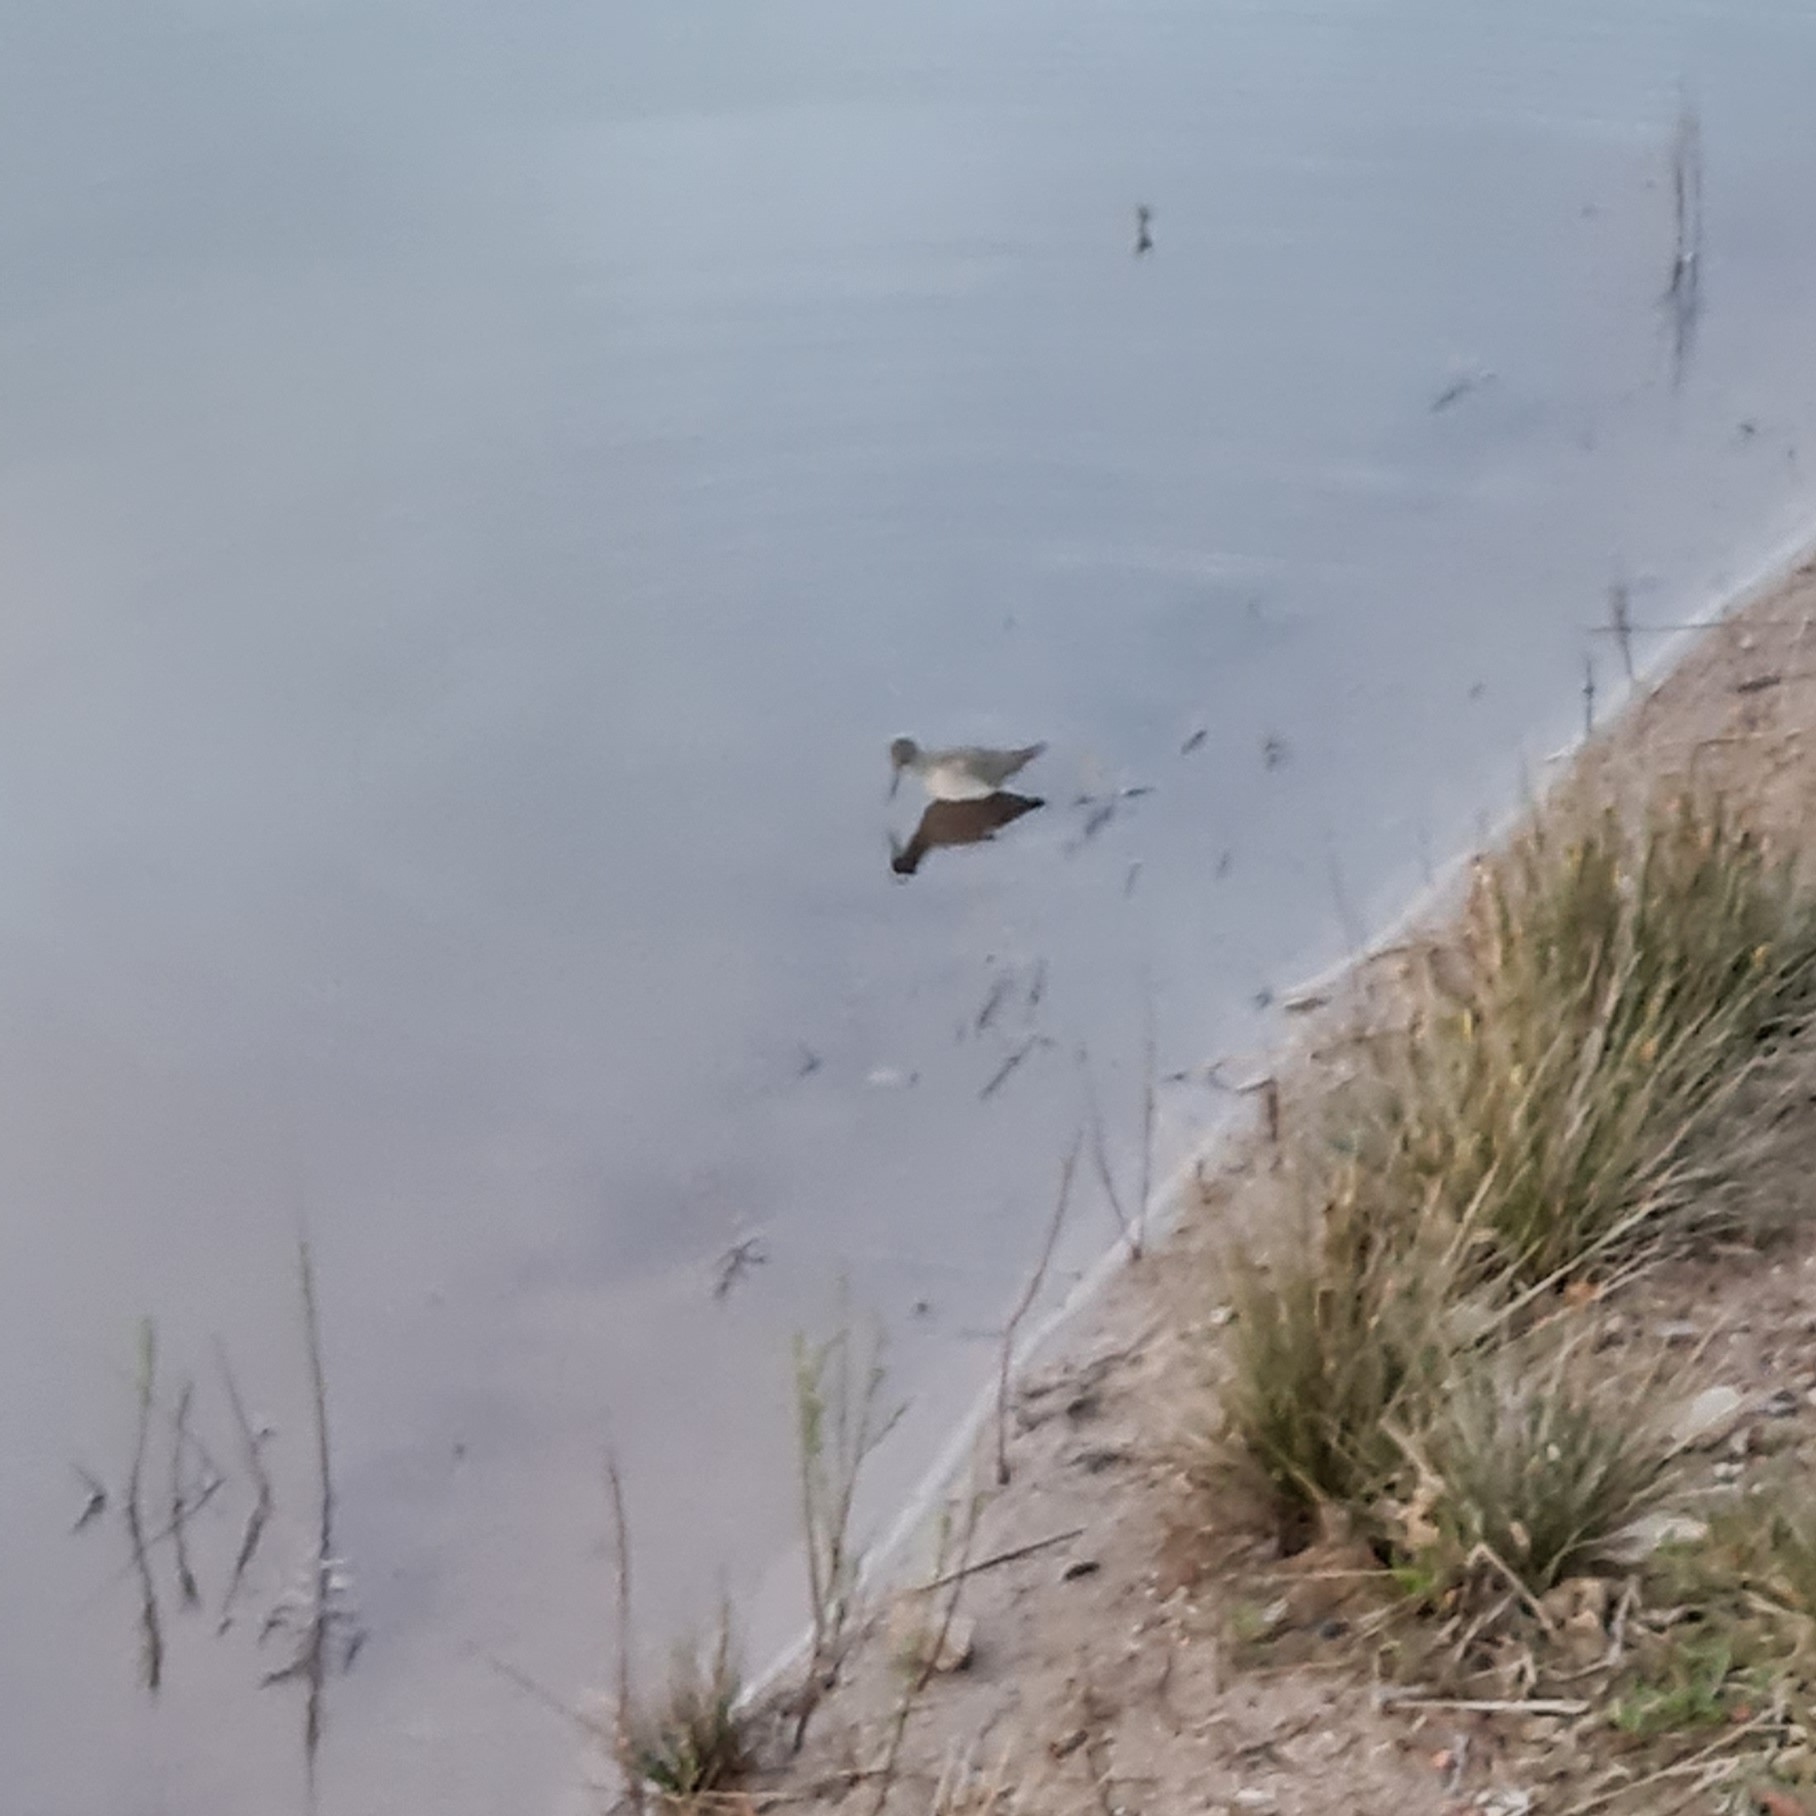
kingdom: Animalia
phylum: Chordata
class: Aves
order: Charadriiformes
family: Scolopacidae
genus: Tringa
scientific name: Tringa nebularia
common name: Common greenshank
